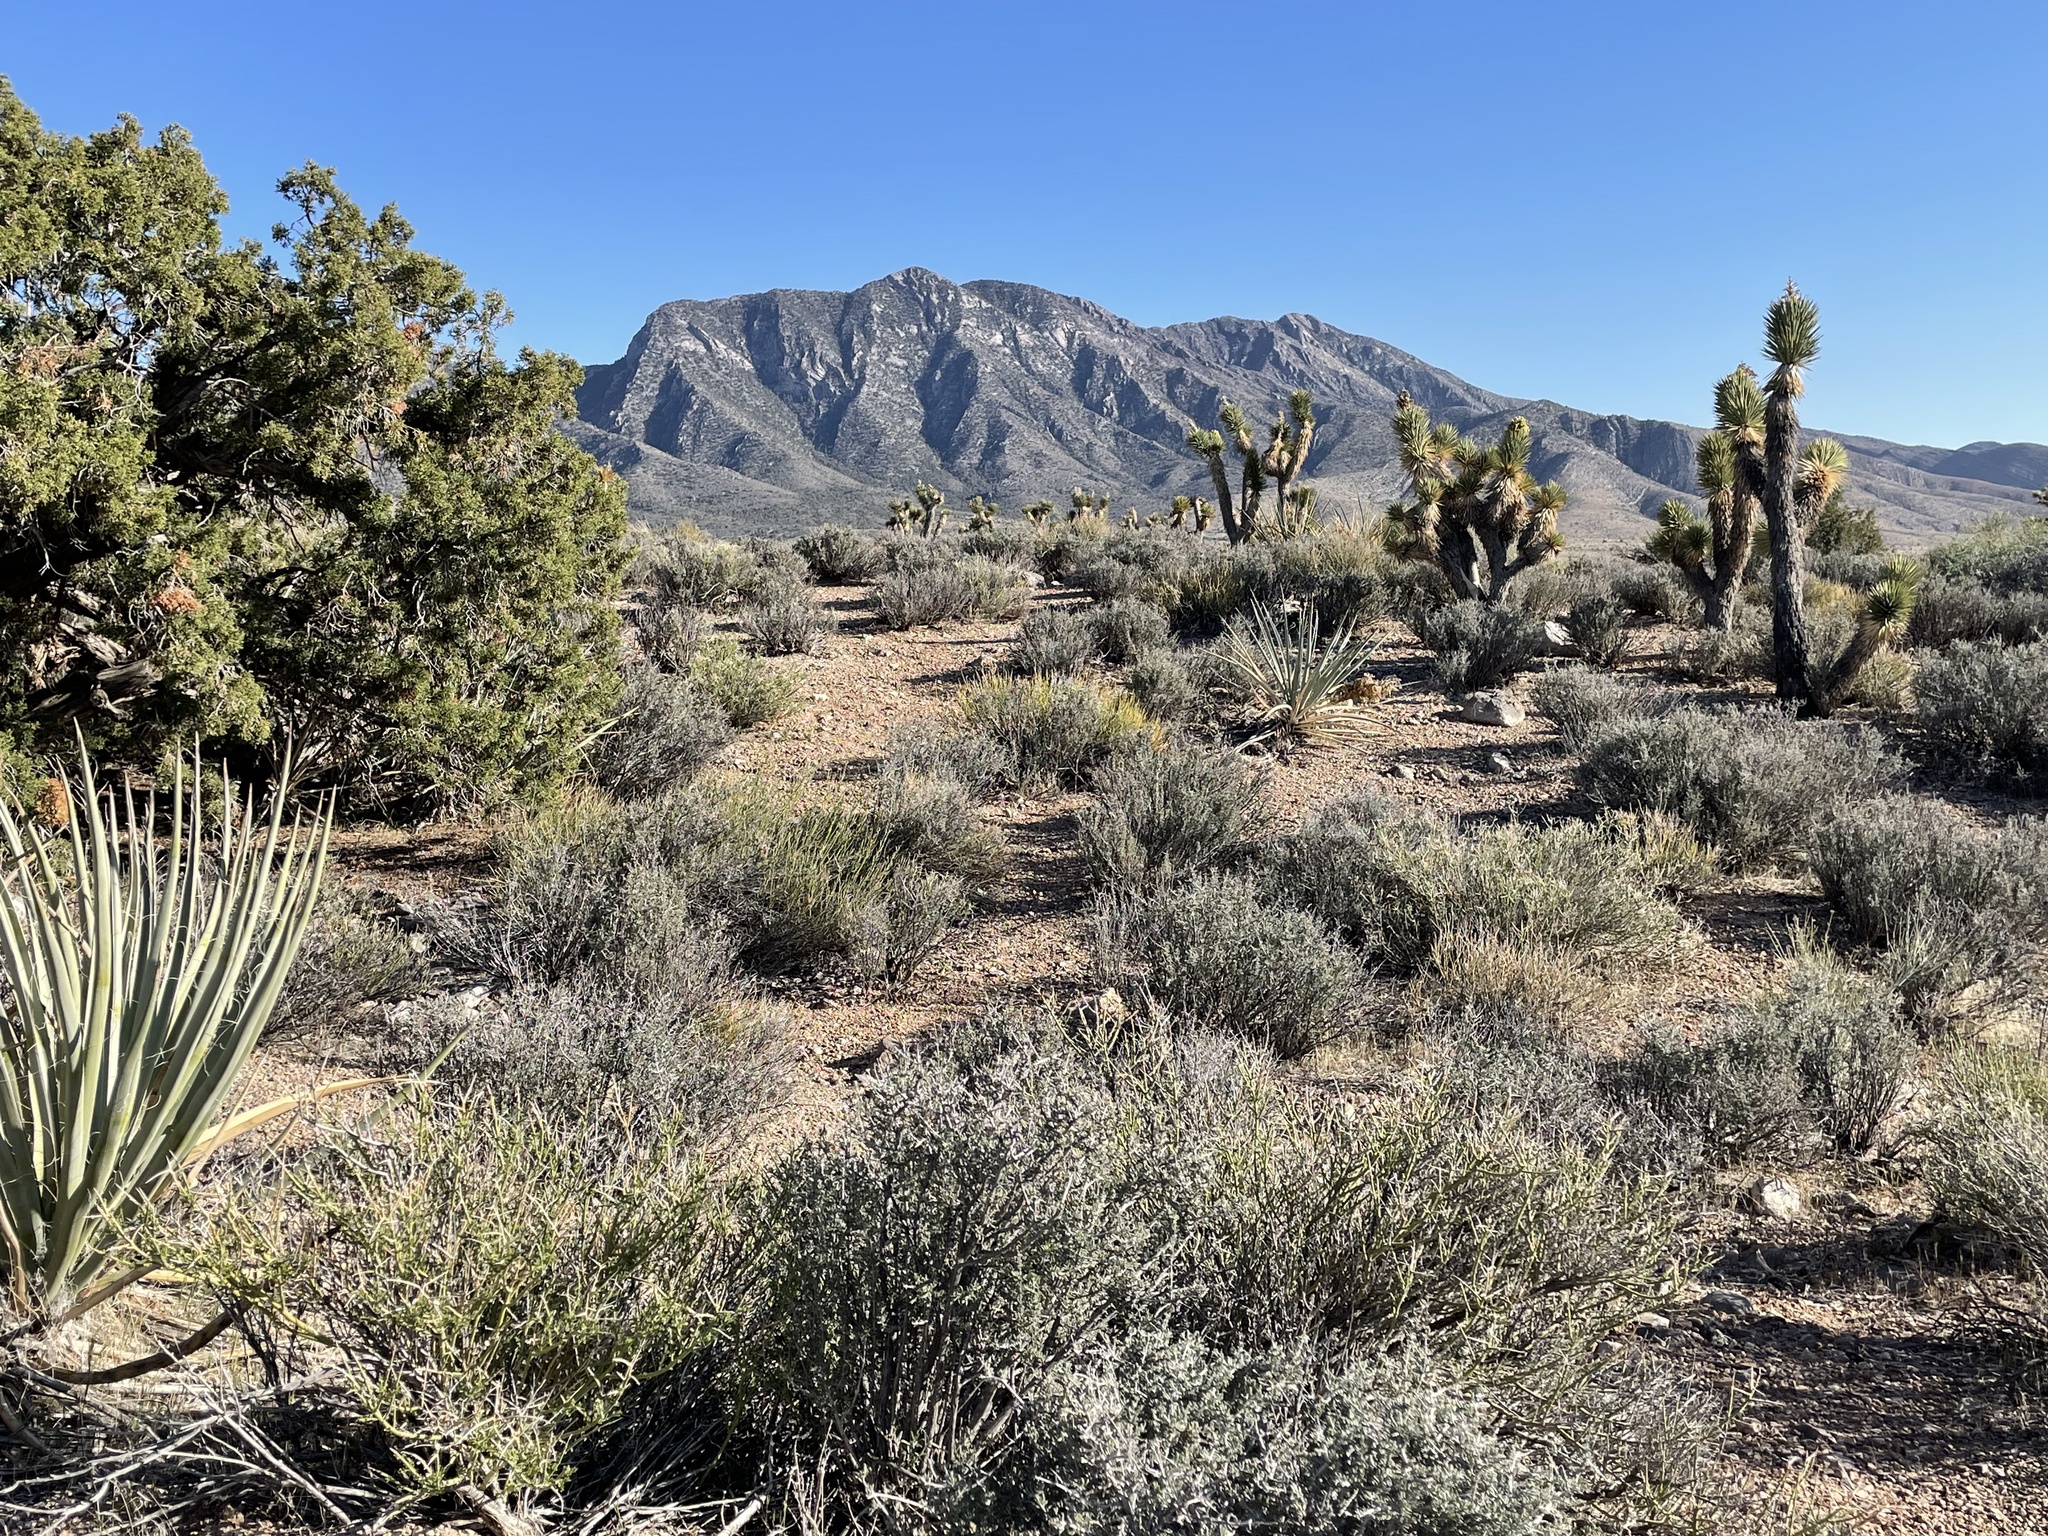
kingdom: Plantae
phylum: Tracheophyta
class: Liliopsida
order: Asparagales
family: Asparagaceae
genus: Yucca
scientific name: Yucca brevifolia
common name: Joshua tree
